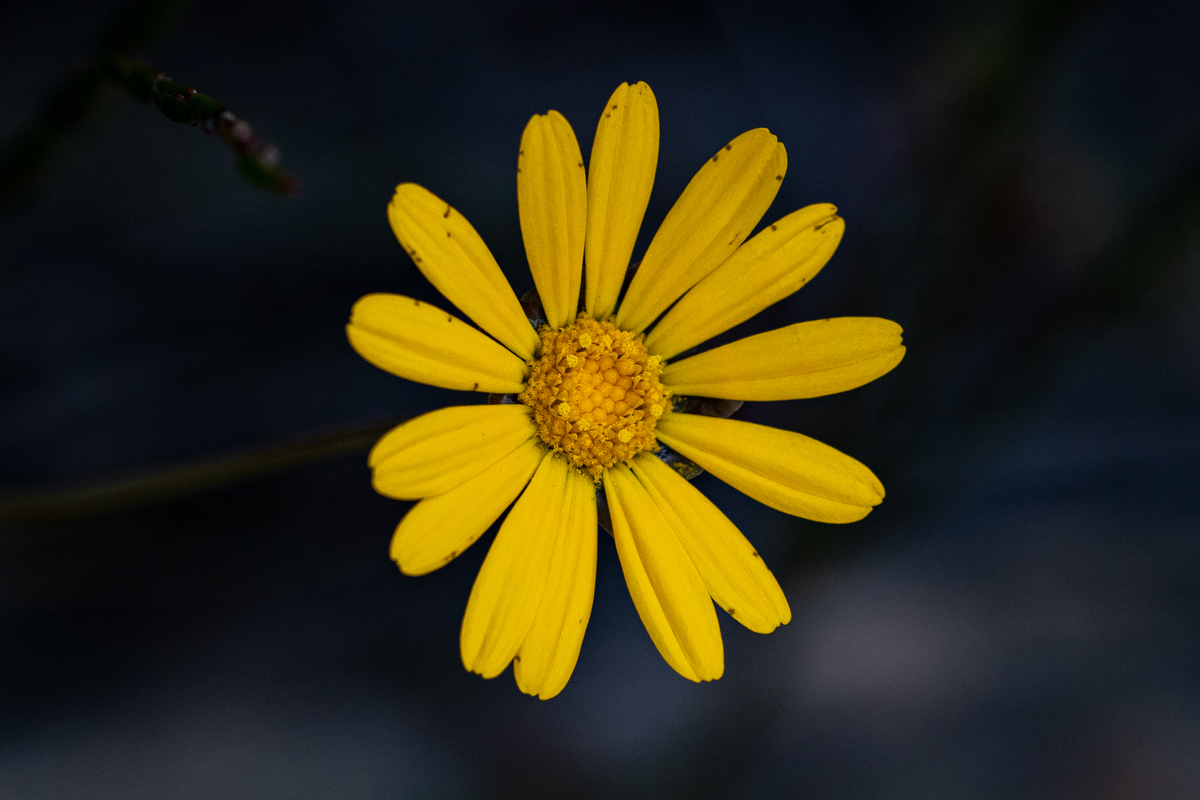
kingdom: Plantae
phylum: Tracheophyta
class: Magnoliopsida
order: Asterales
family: Asteraceae
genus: Ursinia
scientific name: Ursinia paleacea
